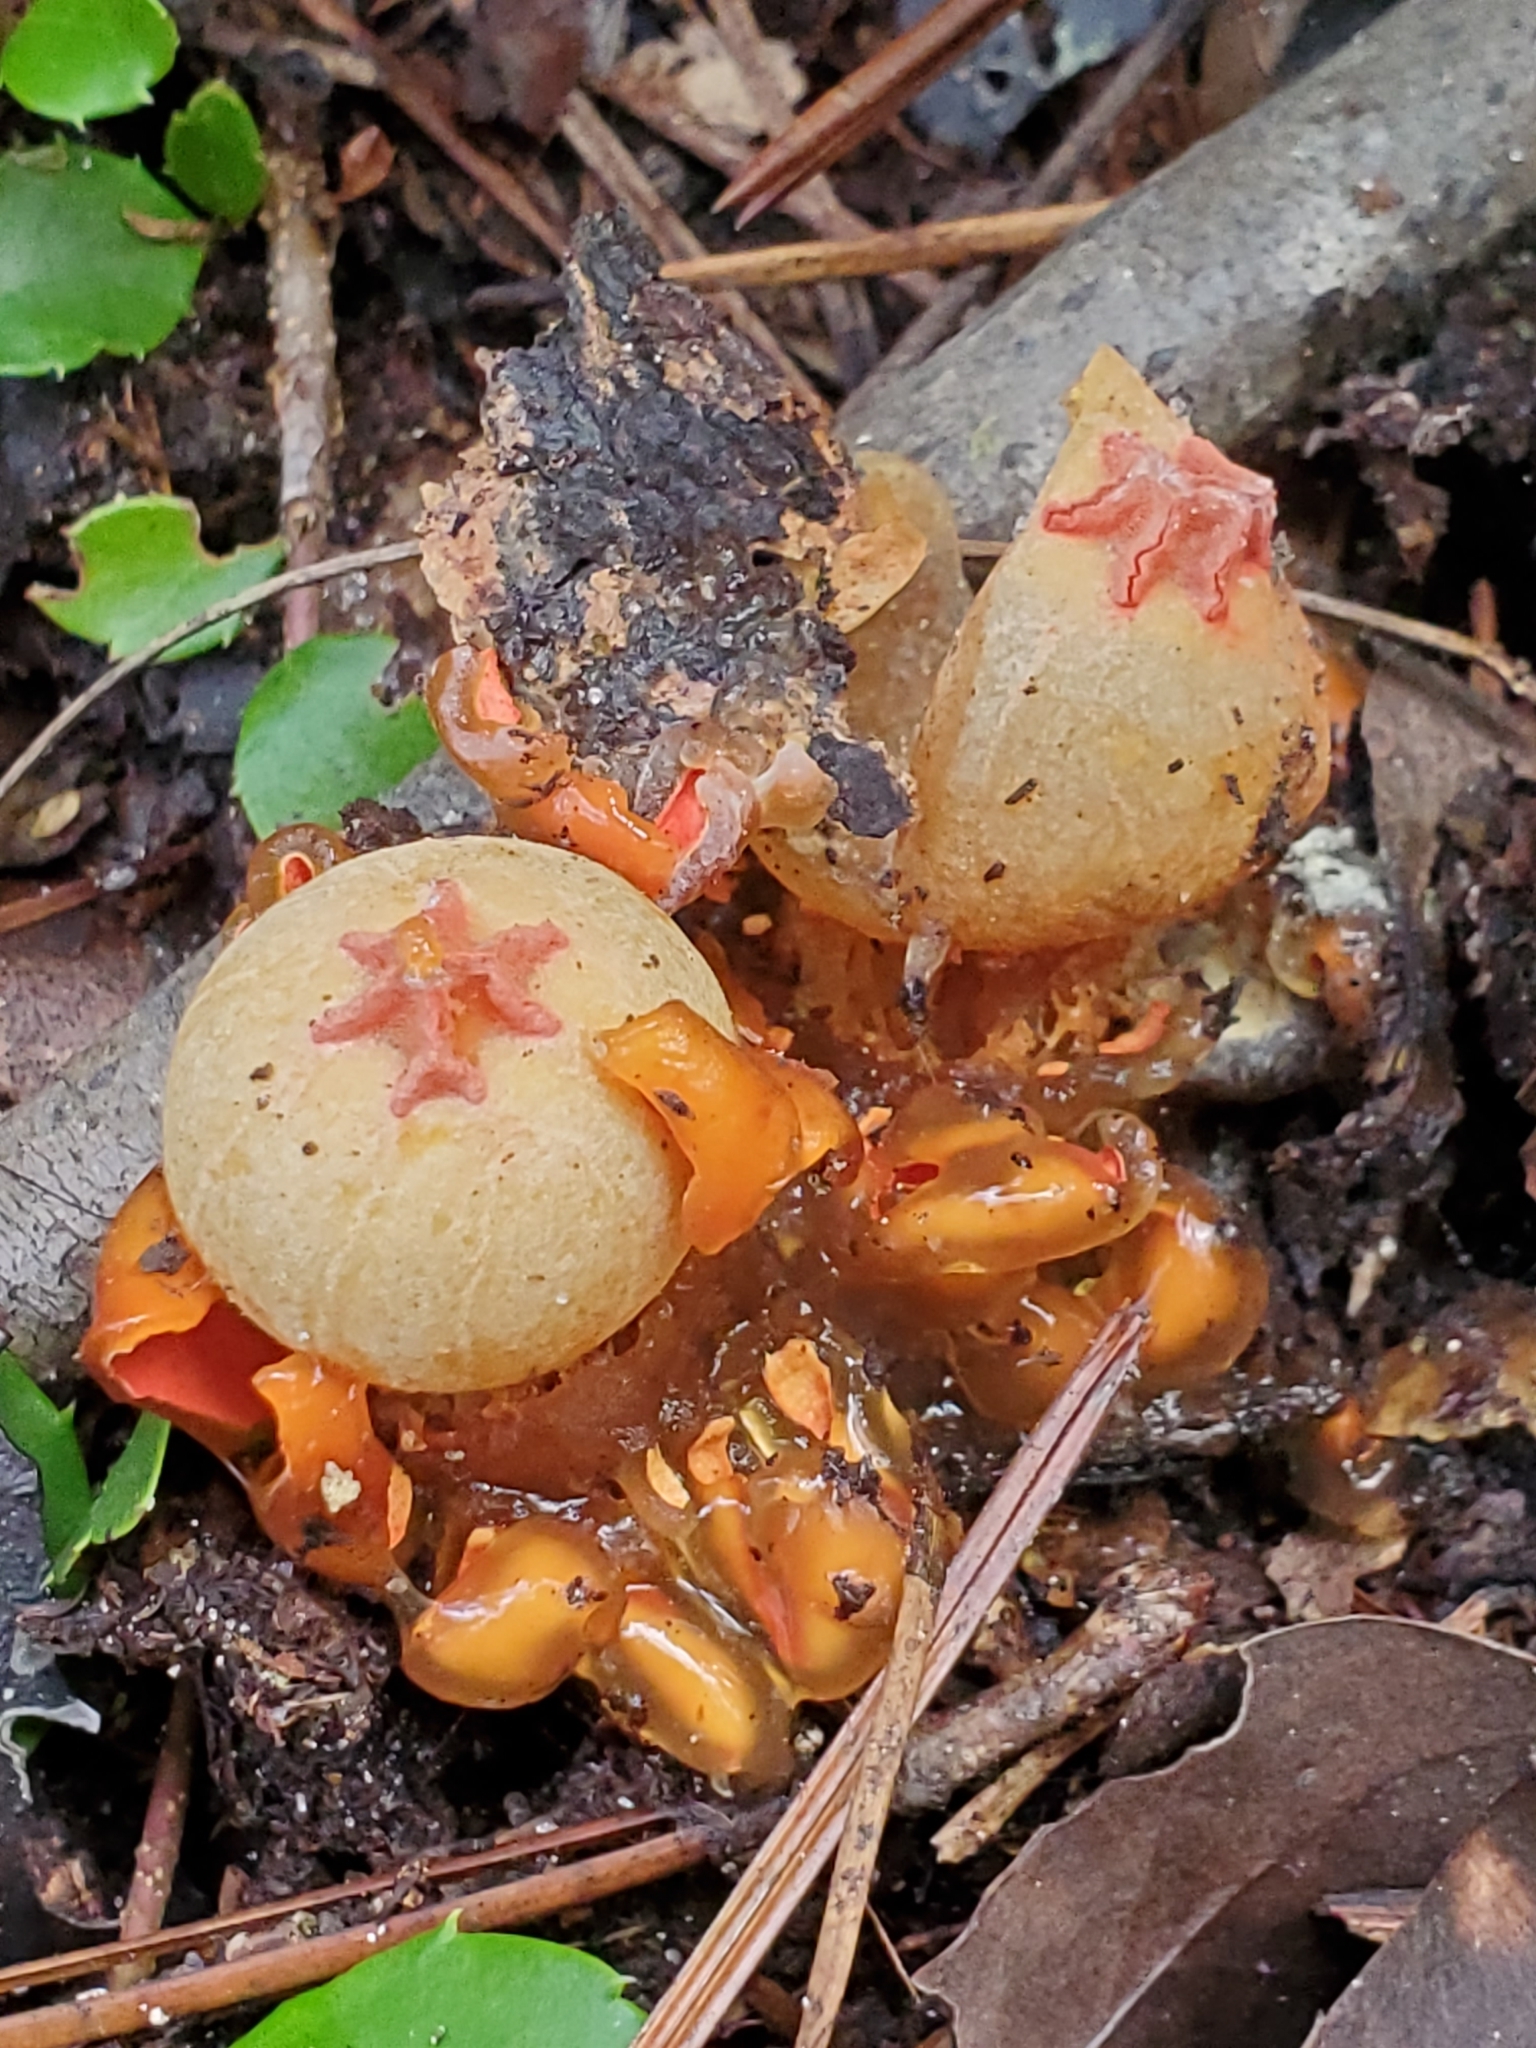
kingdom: Fungi
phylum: Basidiomycota
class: Agaricomycetes
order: Boletales
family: Calostomataceae
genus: Calostoma
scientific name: Calostoma cinnabarinum
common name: Stalked puffball-in-aspic
